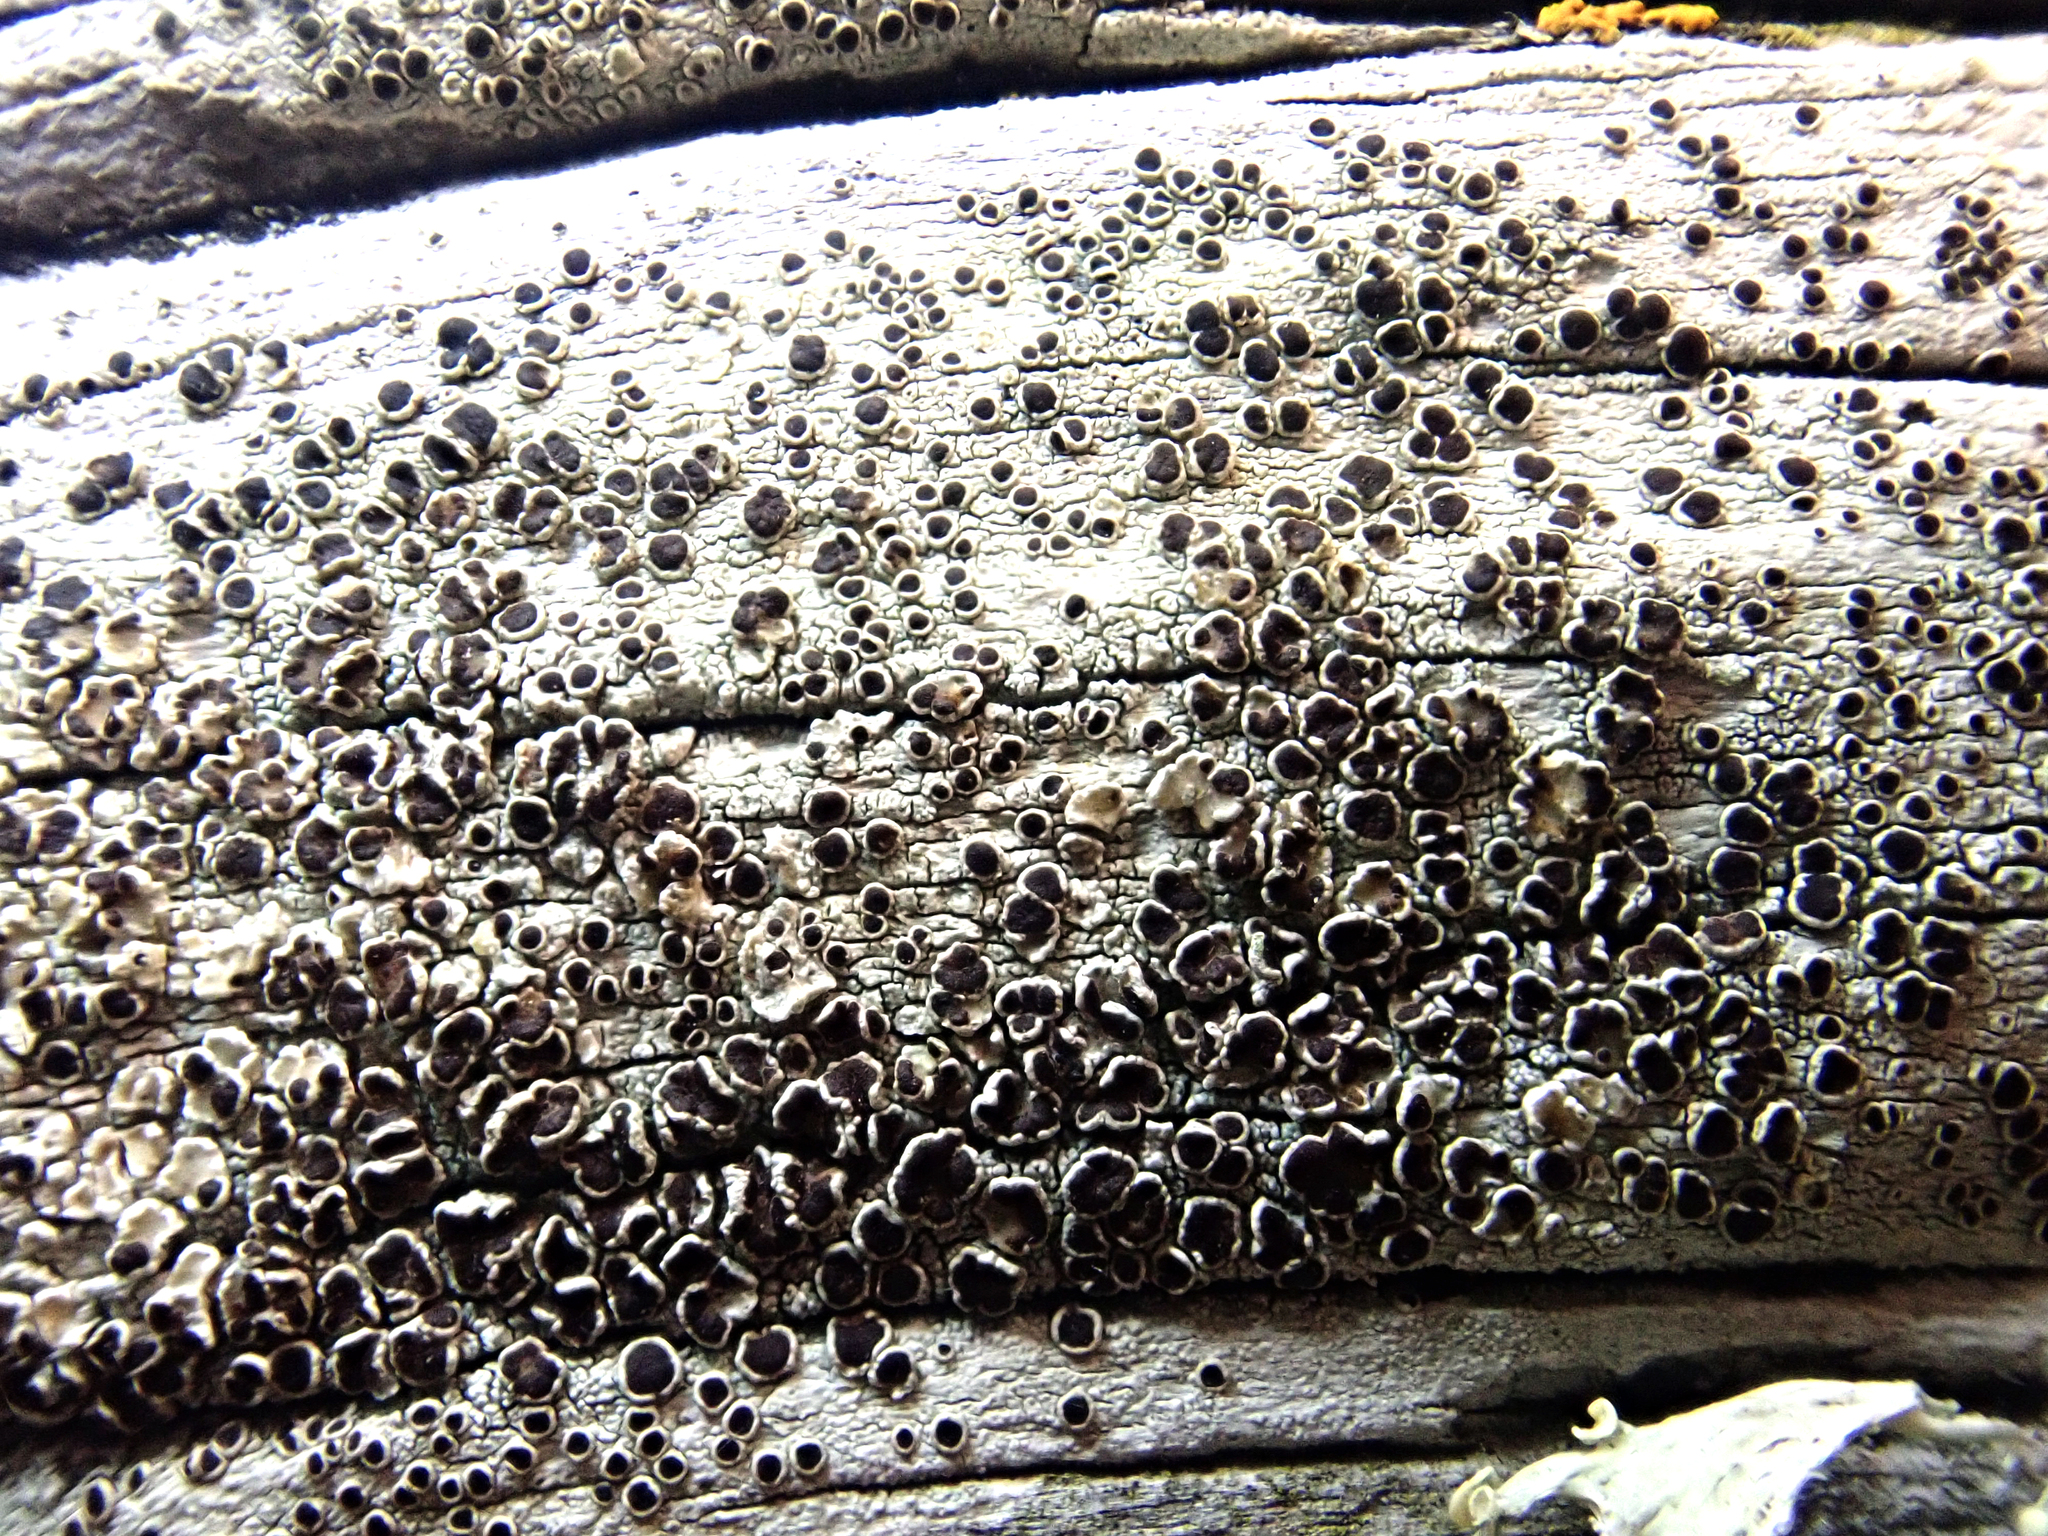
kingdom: Fungi
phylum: Ascomycota
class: Lecanoromycetes
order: Lecanorales
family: Lecanoraceae
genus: Lecanora
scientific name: Lecanora xylophila
